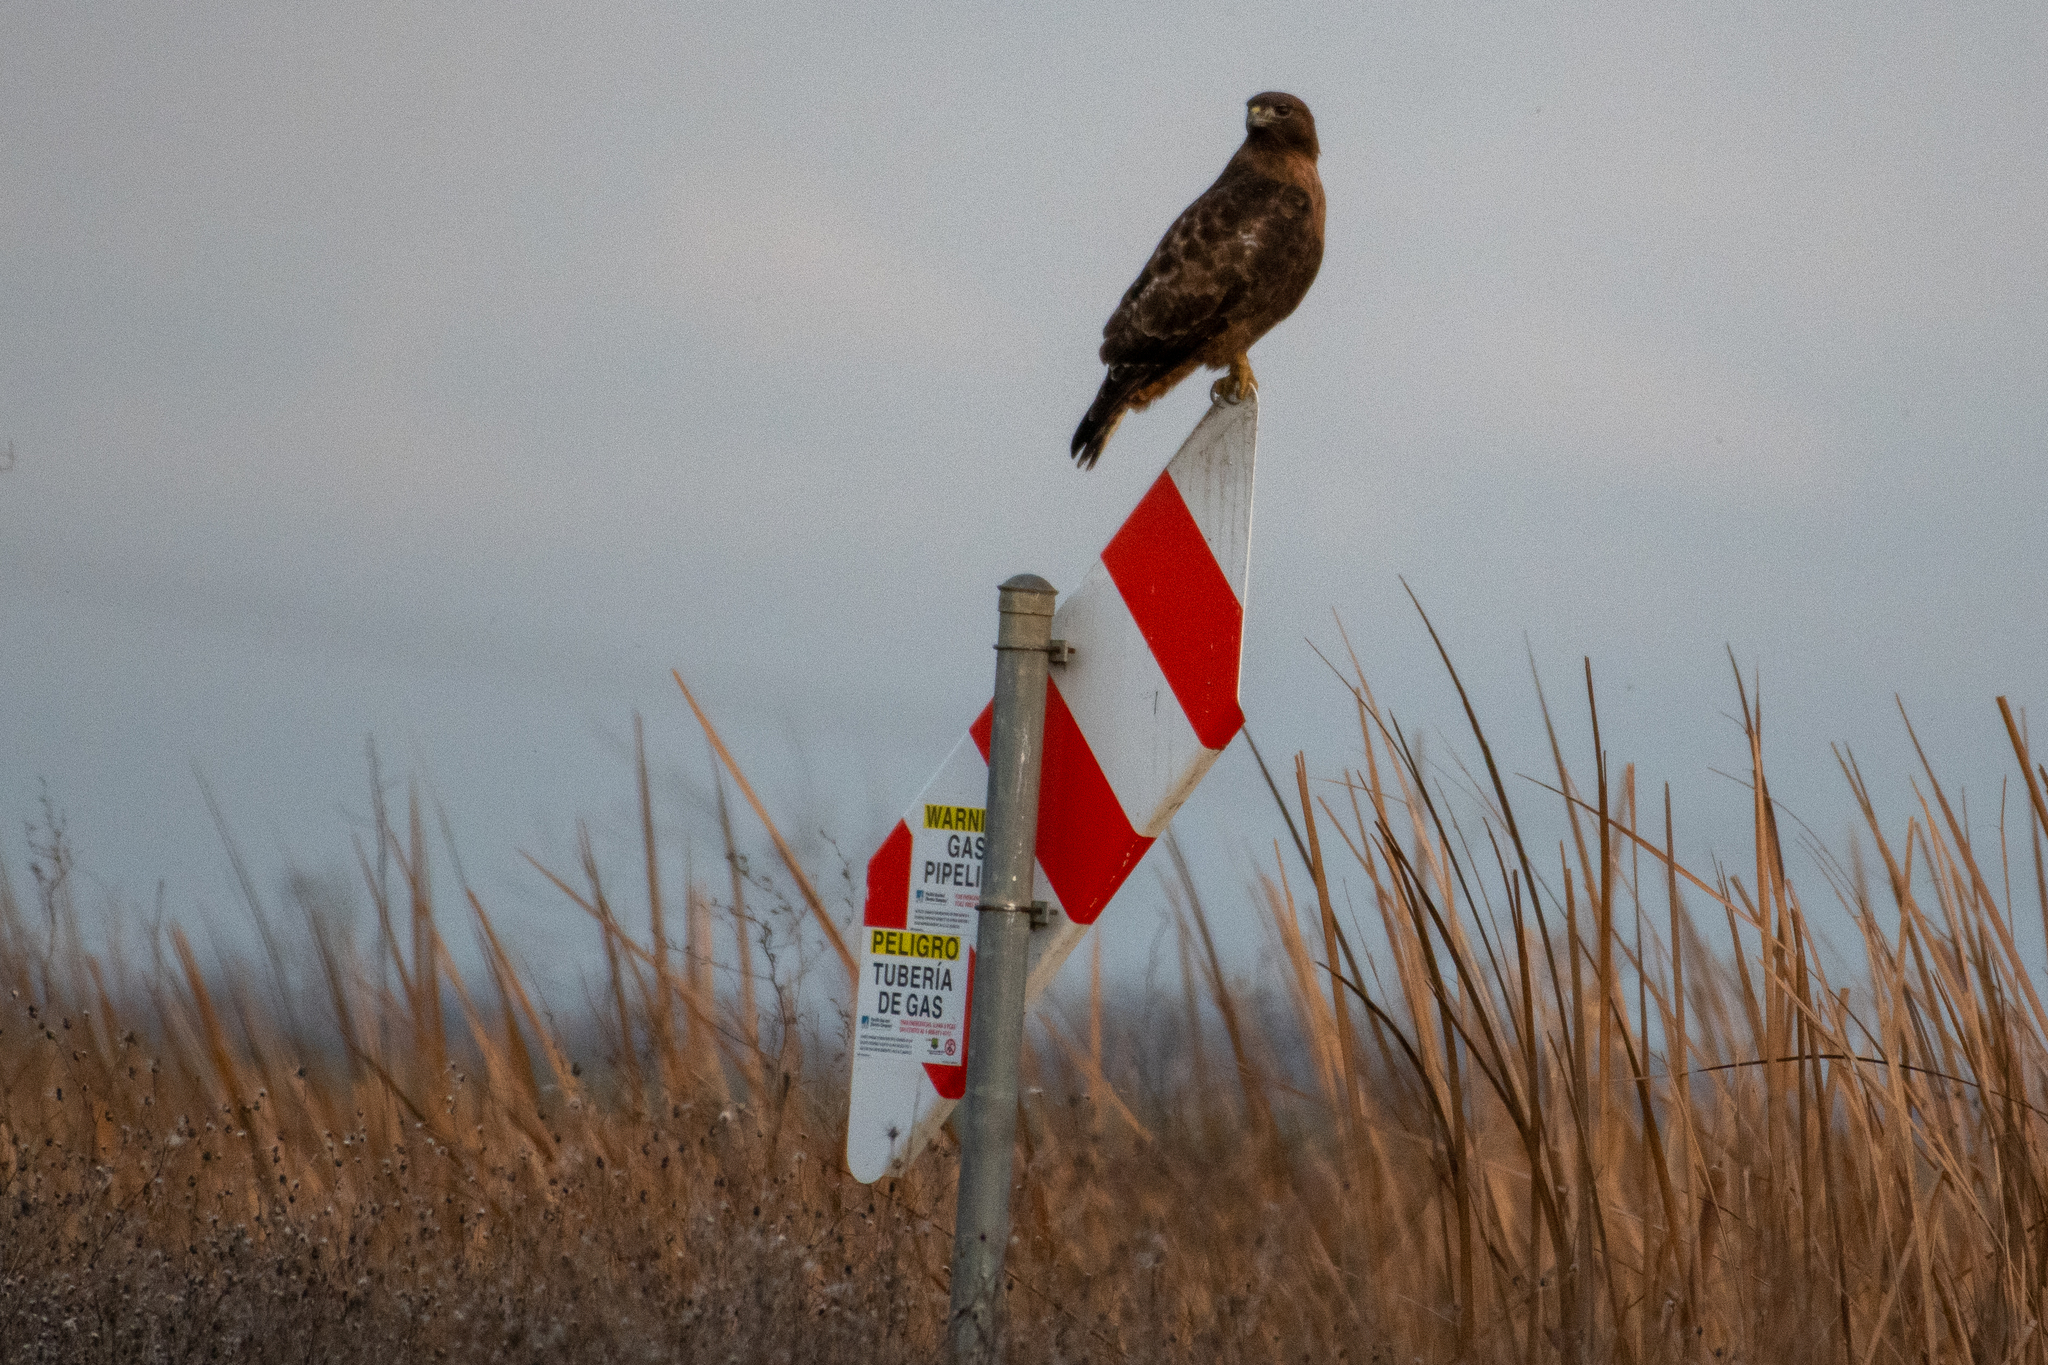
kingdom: Animalia
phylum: Chordata
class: Aves
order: Accipitriformes
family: Accipitridae
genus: Buteo
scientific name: Buteo jamaicensis
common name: Red-tailed hawk
